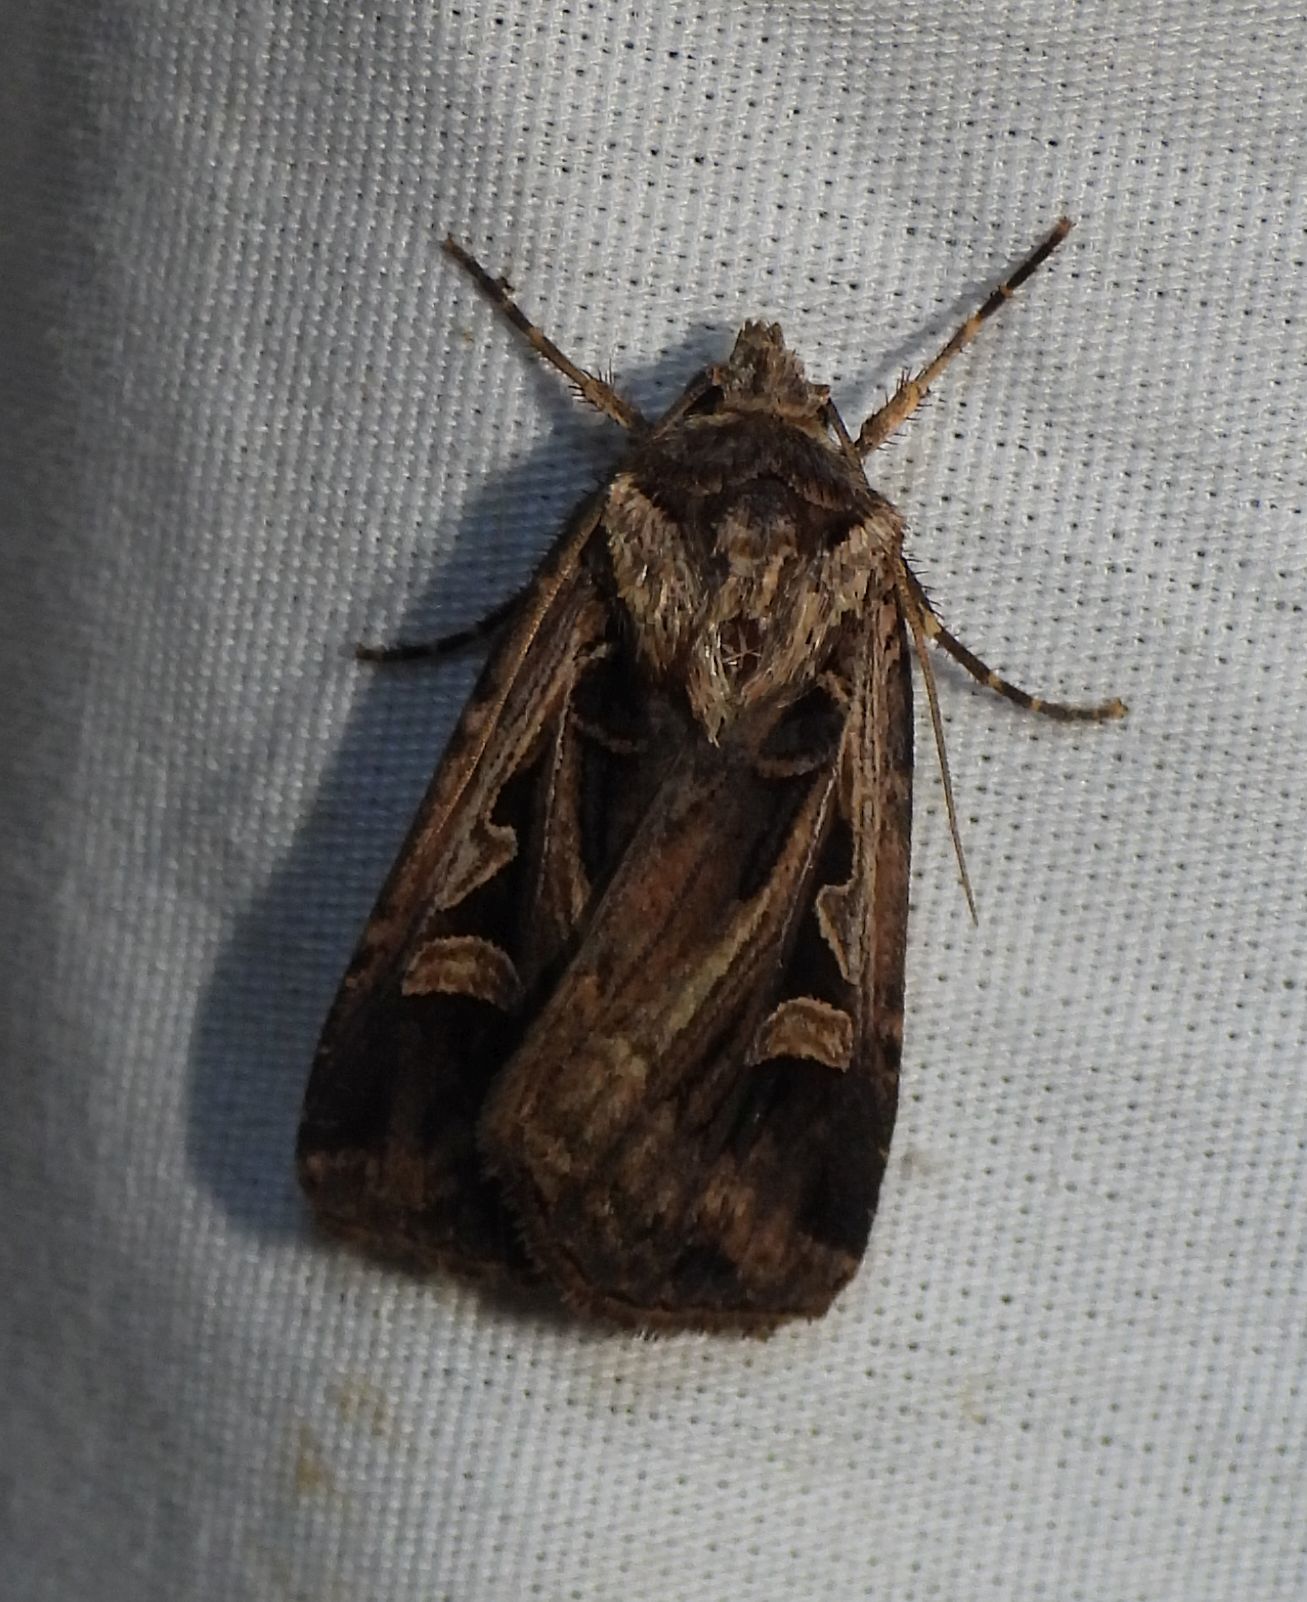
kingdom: Animalia
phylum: Arthropoda
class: Insecta
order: Lepidoptera
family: Noctuidae
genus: Feltia
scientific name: Feltia
